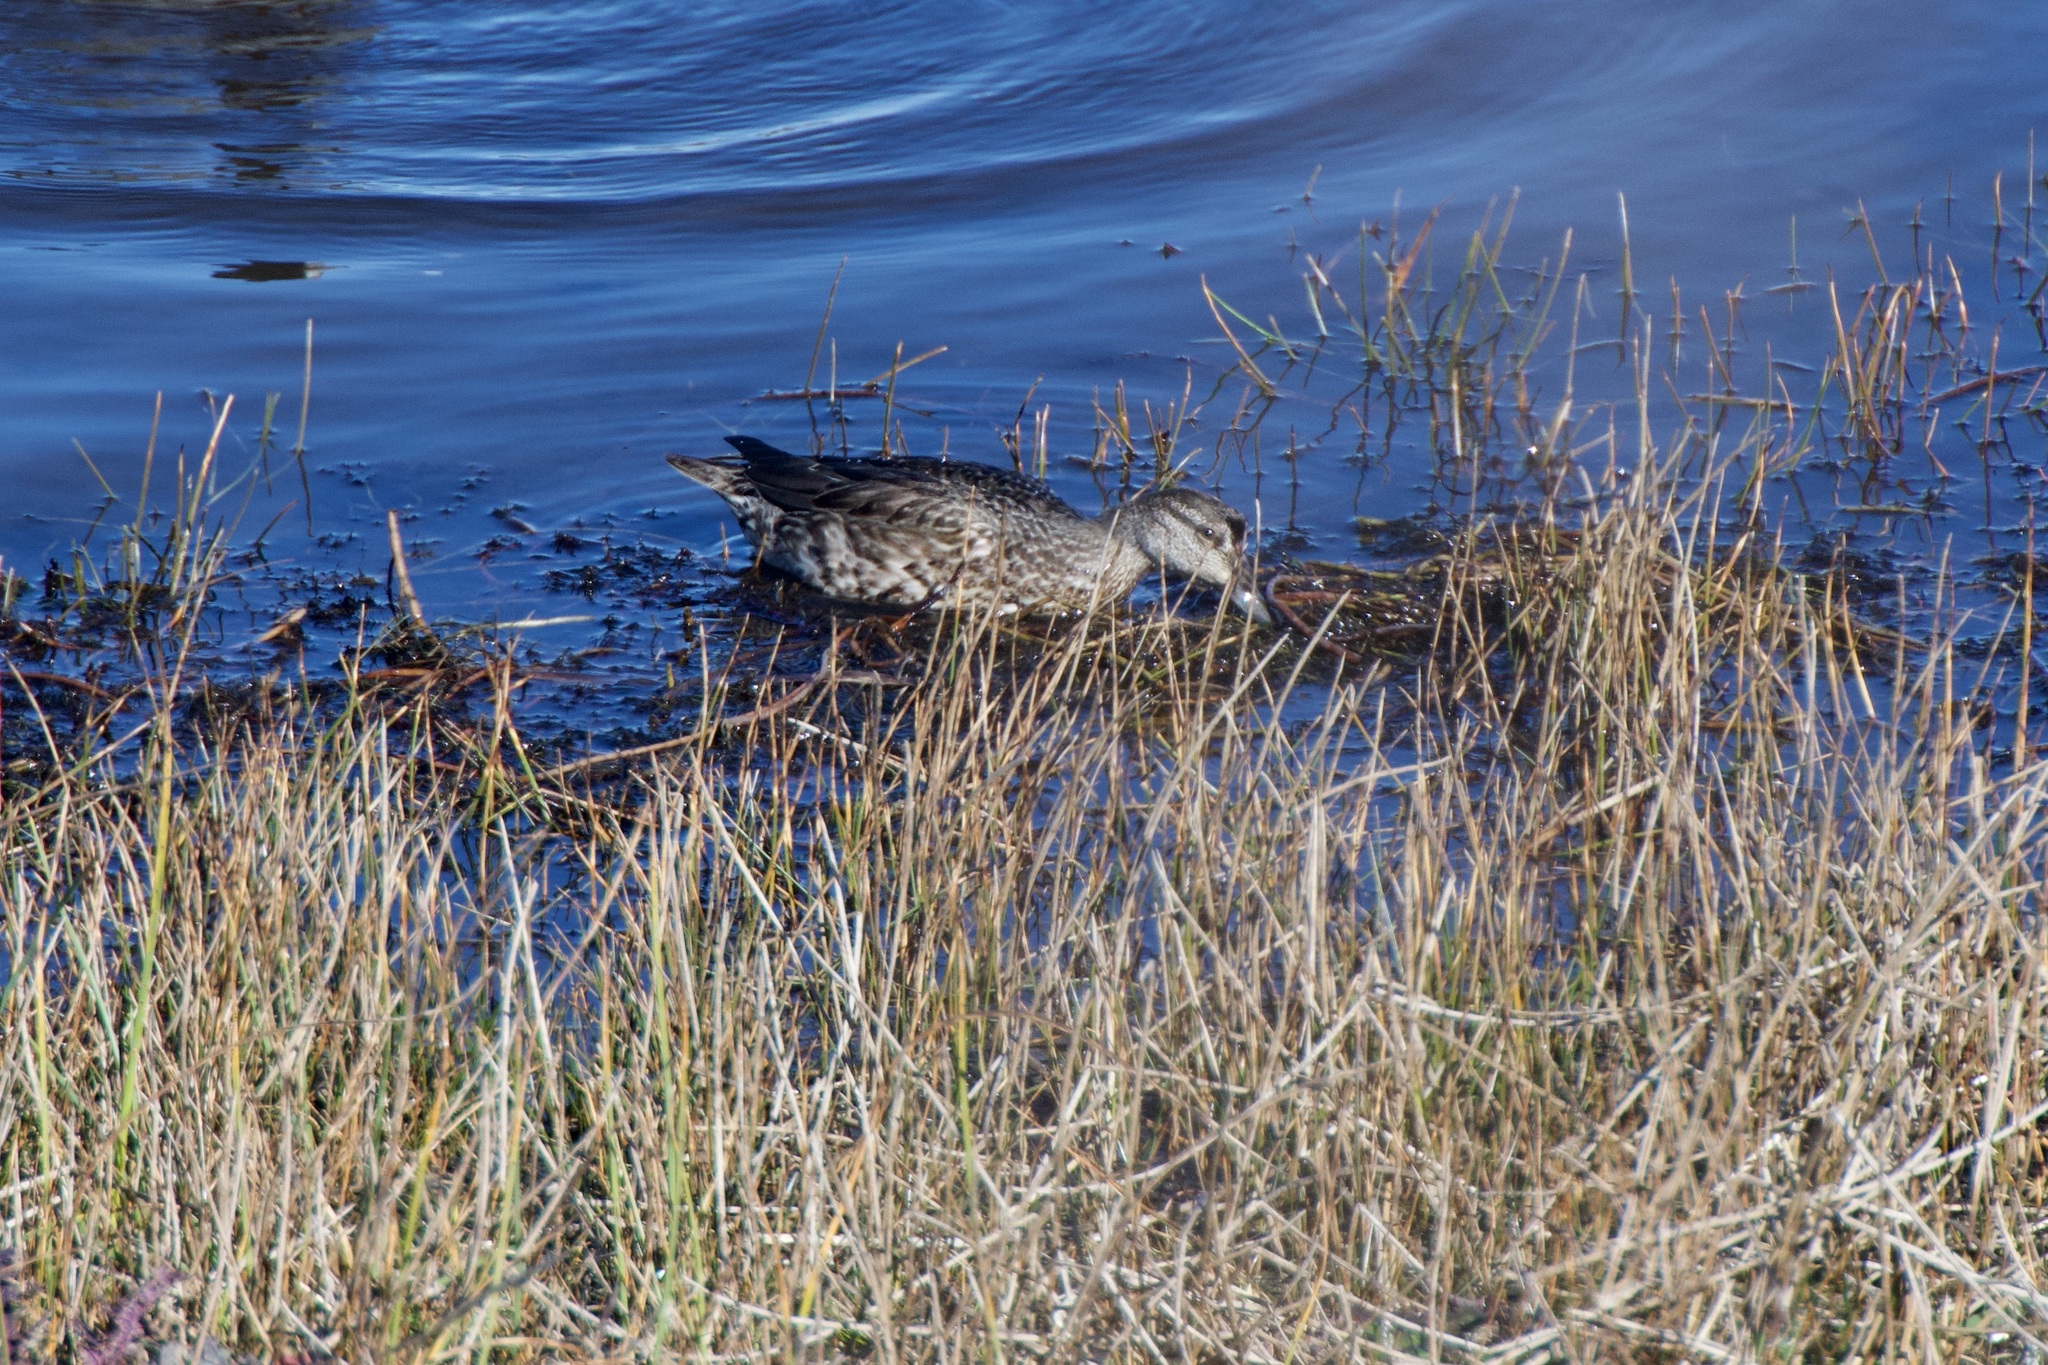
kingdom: Animalia
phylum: Chordata
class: Aves
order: Anseriformes
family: Anatidae
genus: Anas
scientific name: Anas crecca
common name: Eurasian teal
